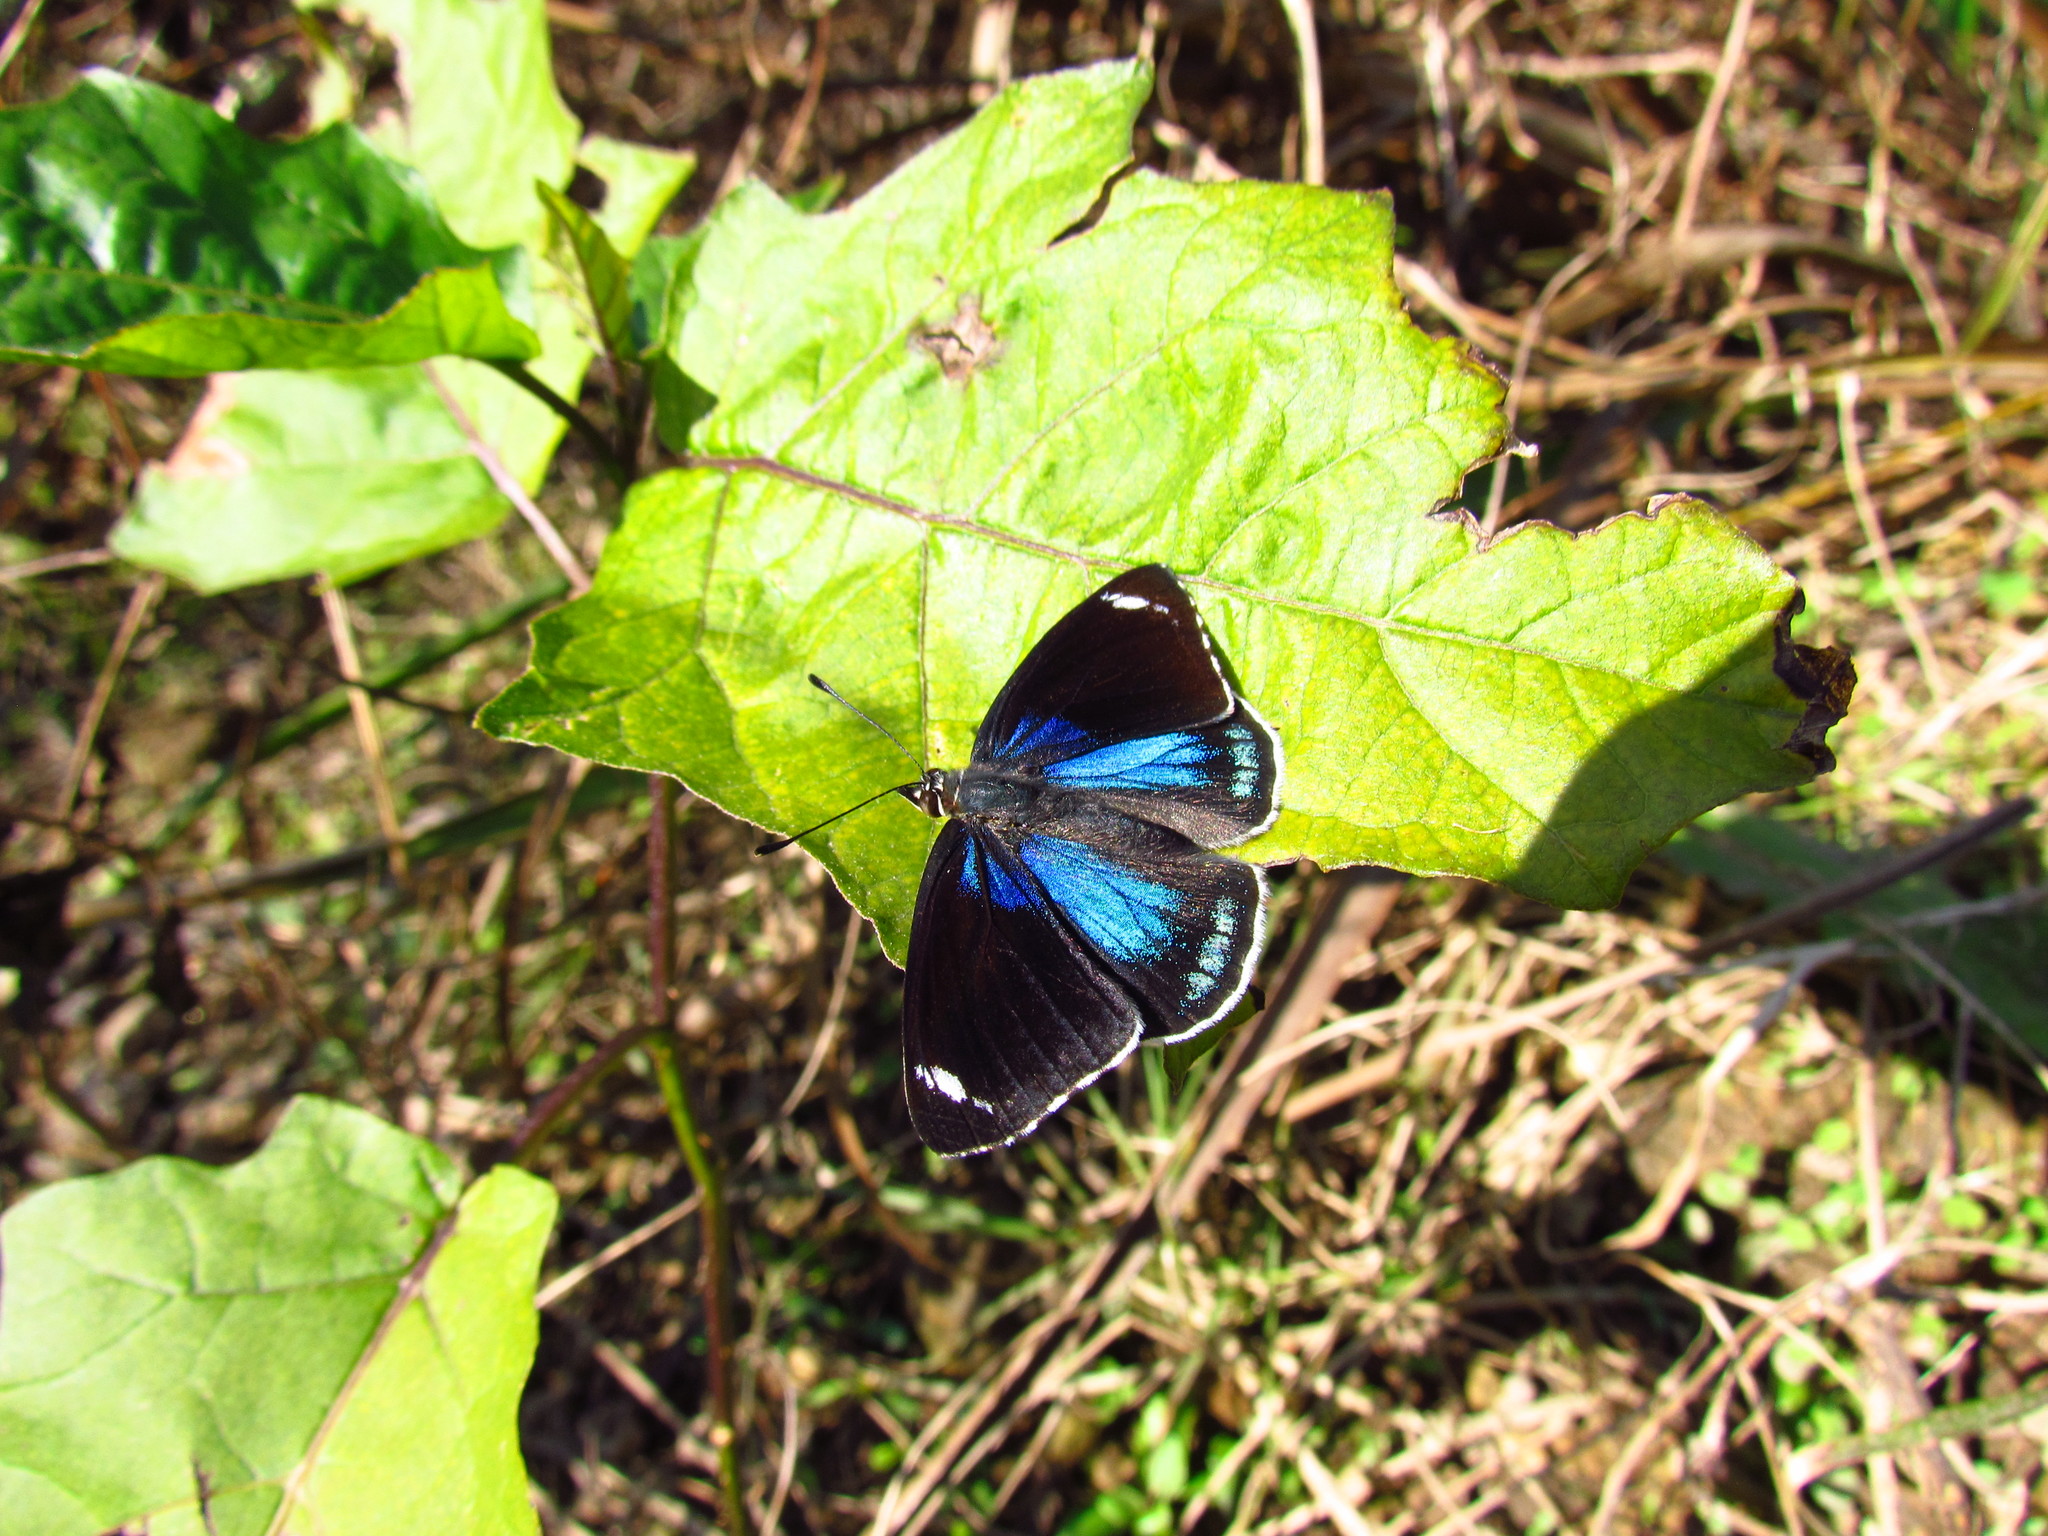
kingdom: Animalia
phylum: Arthropoda
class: Insecta
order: Lepidoptera
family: Nymphalidae
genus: Diaethria
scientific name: Diaethria candrena
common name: Number eighty
